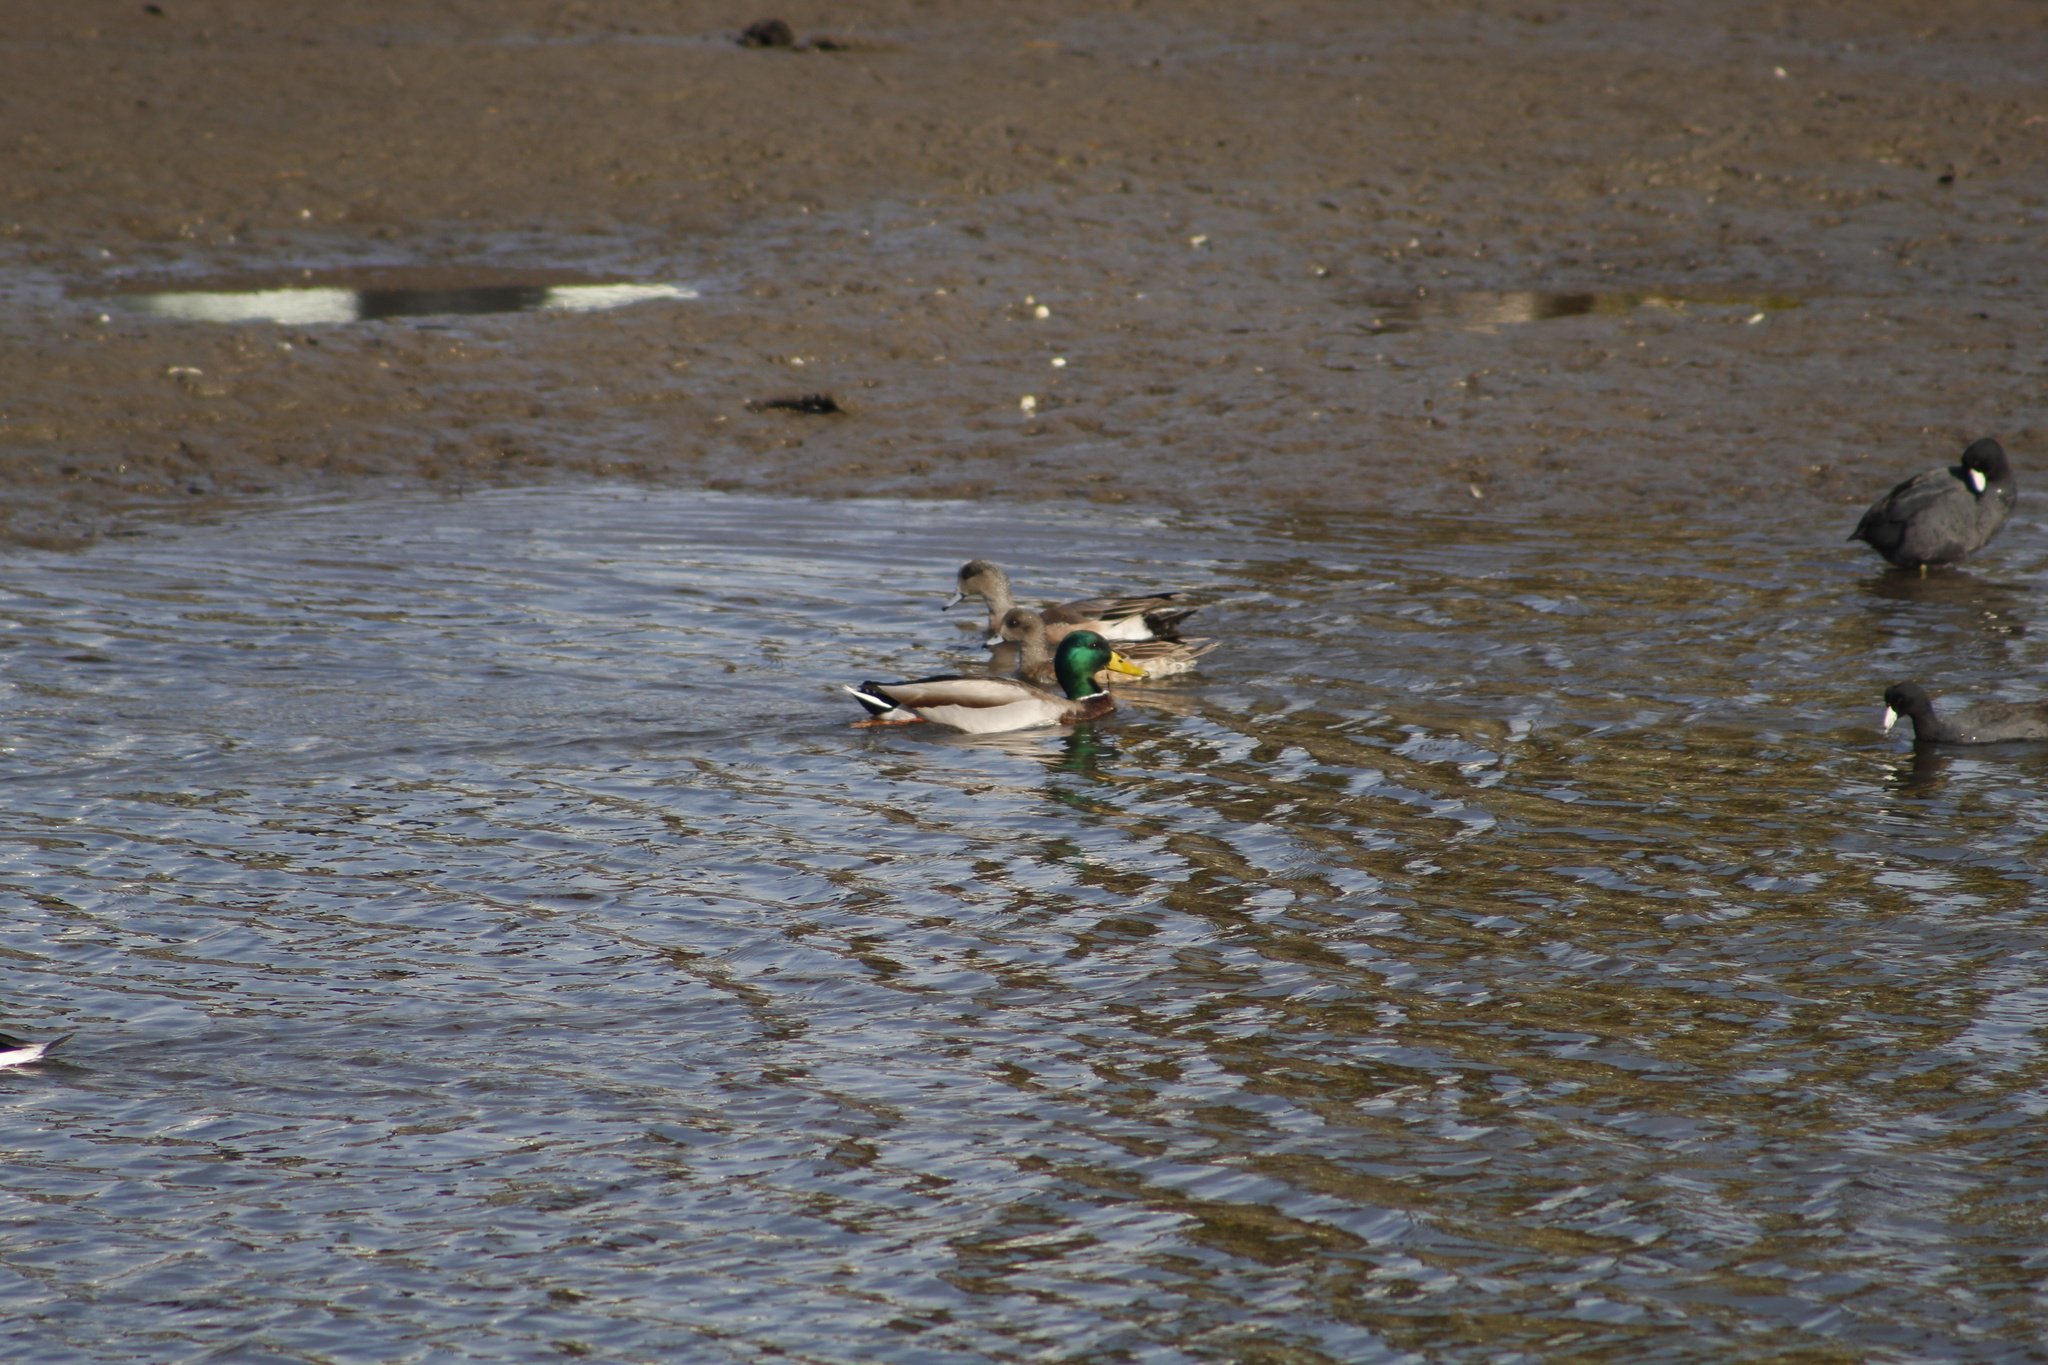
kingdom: Animalia
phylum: Chordata
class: Aves
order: Anseriformes
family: Anatidae
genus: Anas
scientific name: Anas platyrhynchos
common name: Mallard
